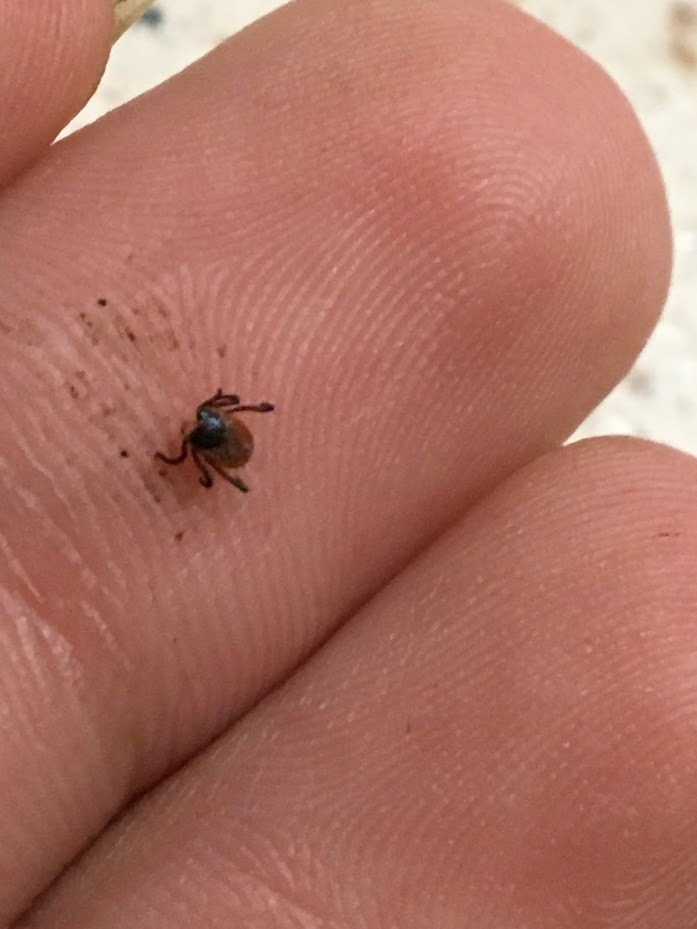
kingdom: Animalia
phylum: Arthropoda
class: Arachnida
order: Ixodida
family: Ixodidae
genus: Ixodes
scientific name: Ixodes scapularis
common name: Black legged tick
